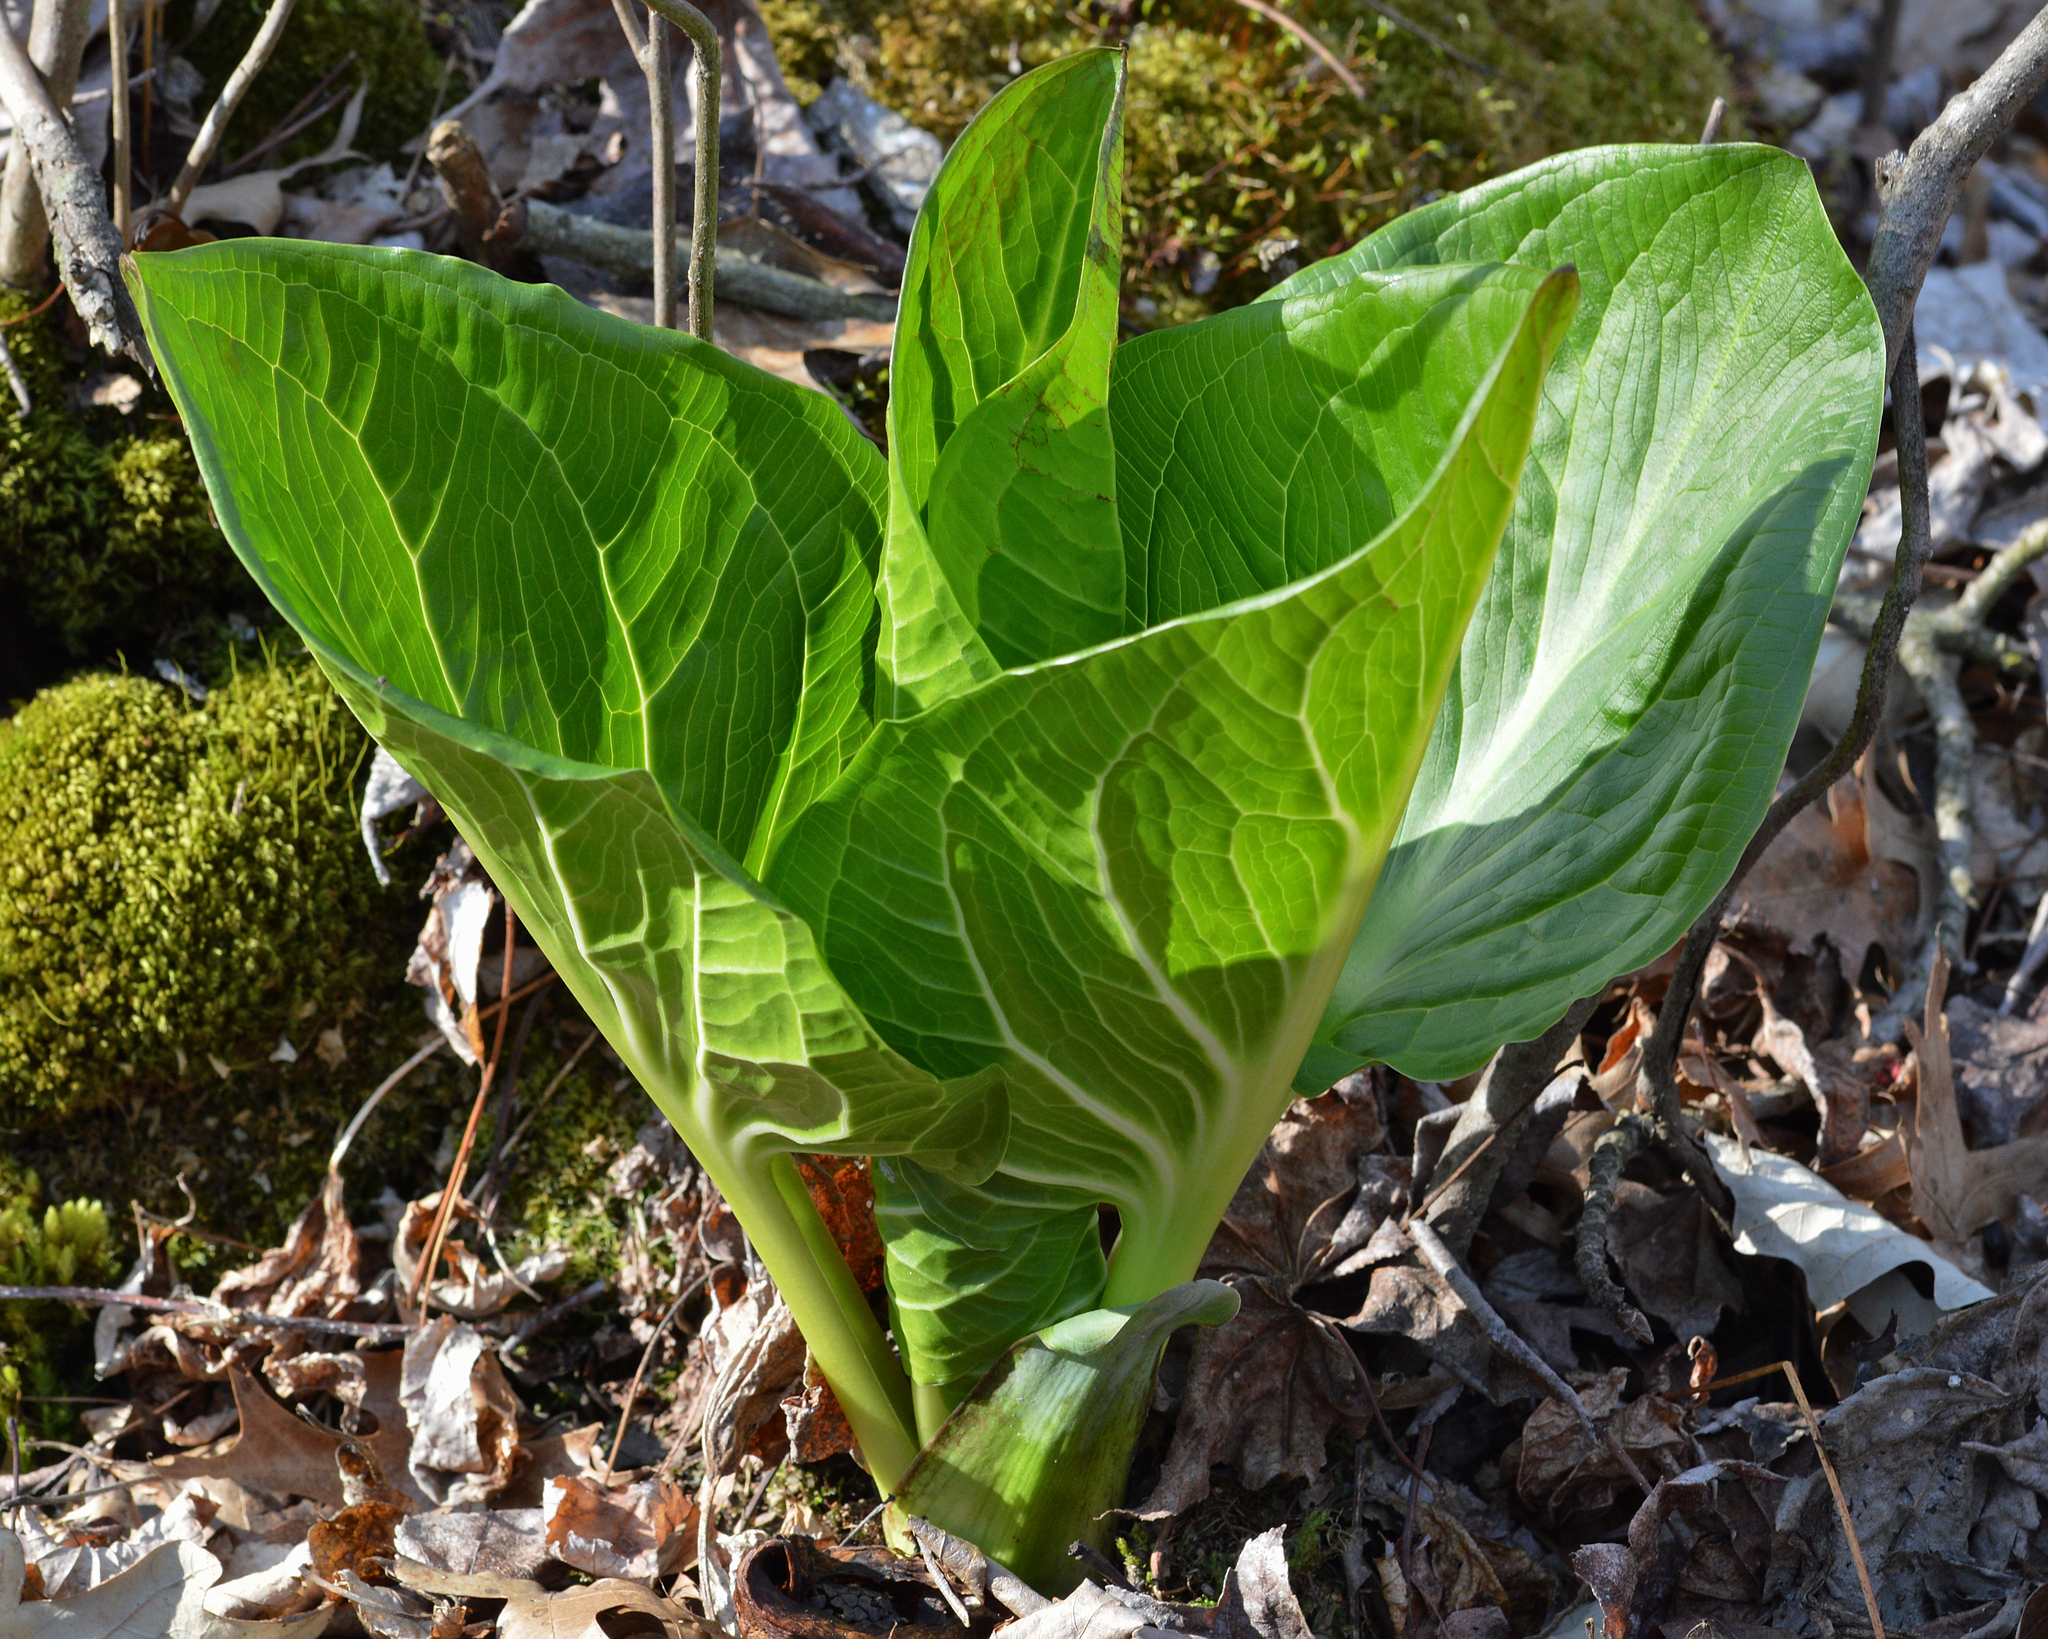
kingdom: Plantae
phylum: Tracheophyta
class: Liliopsida
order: Alismatales
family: Araceae
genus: Symplocarpus
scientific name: Symplocarpus foetidus
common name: Eastern skunk cabbage
